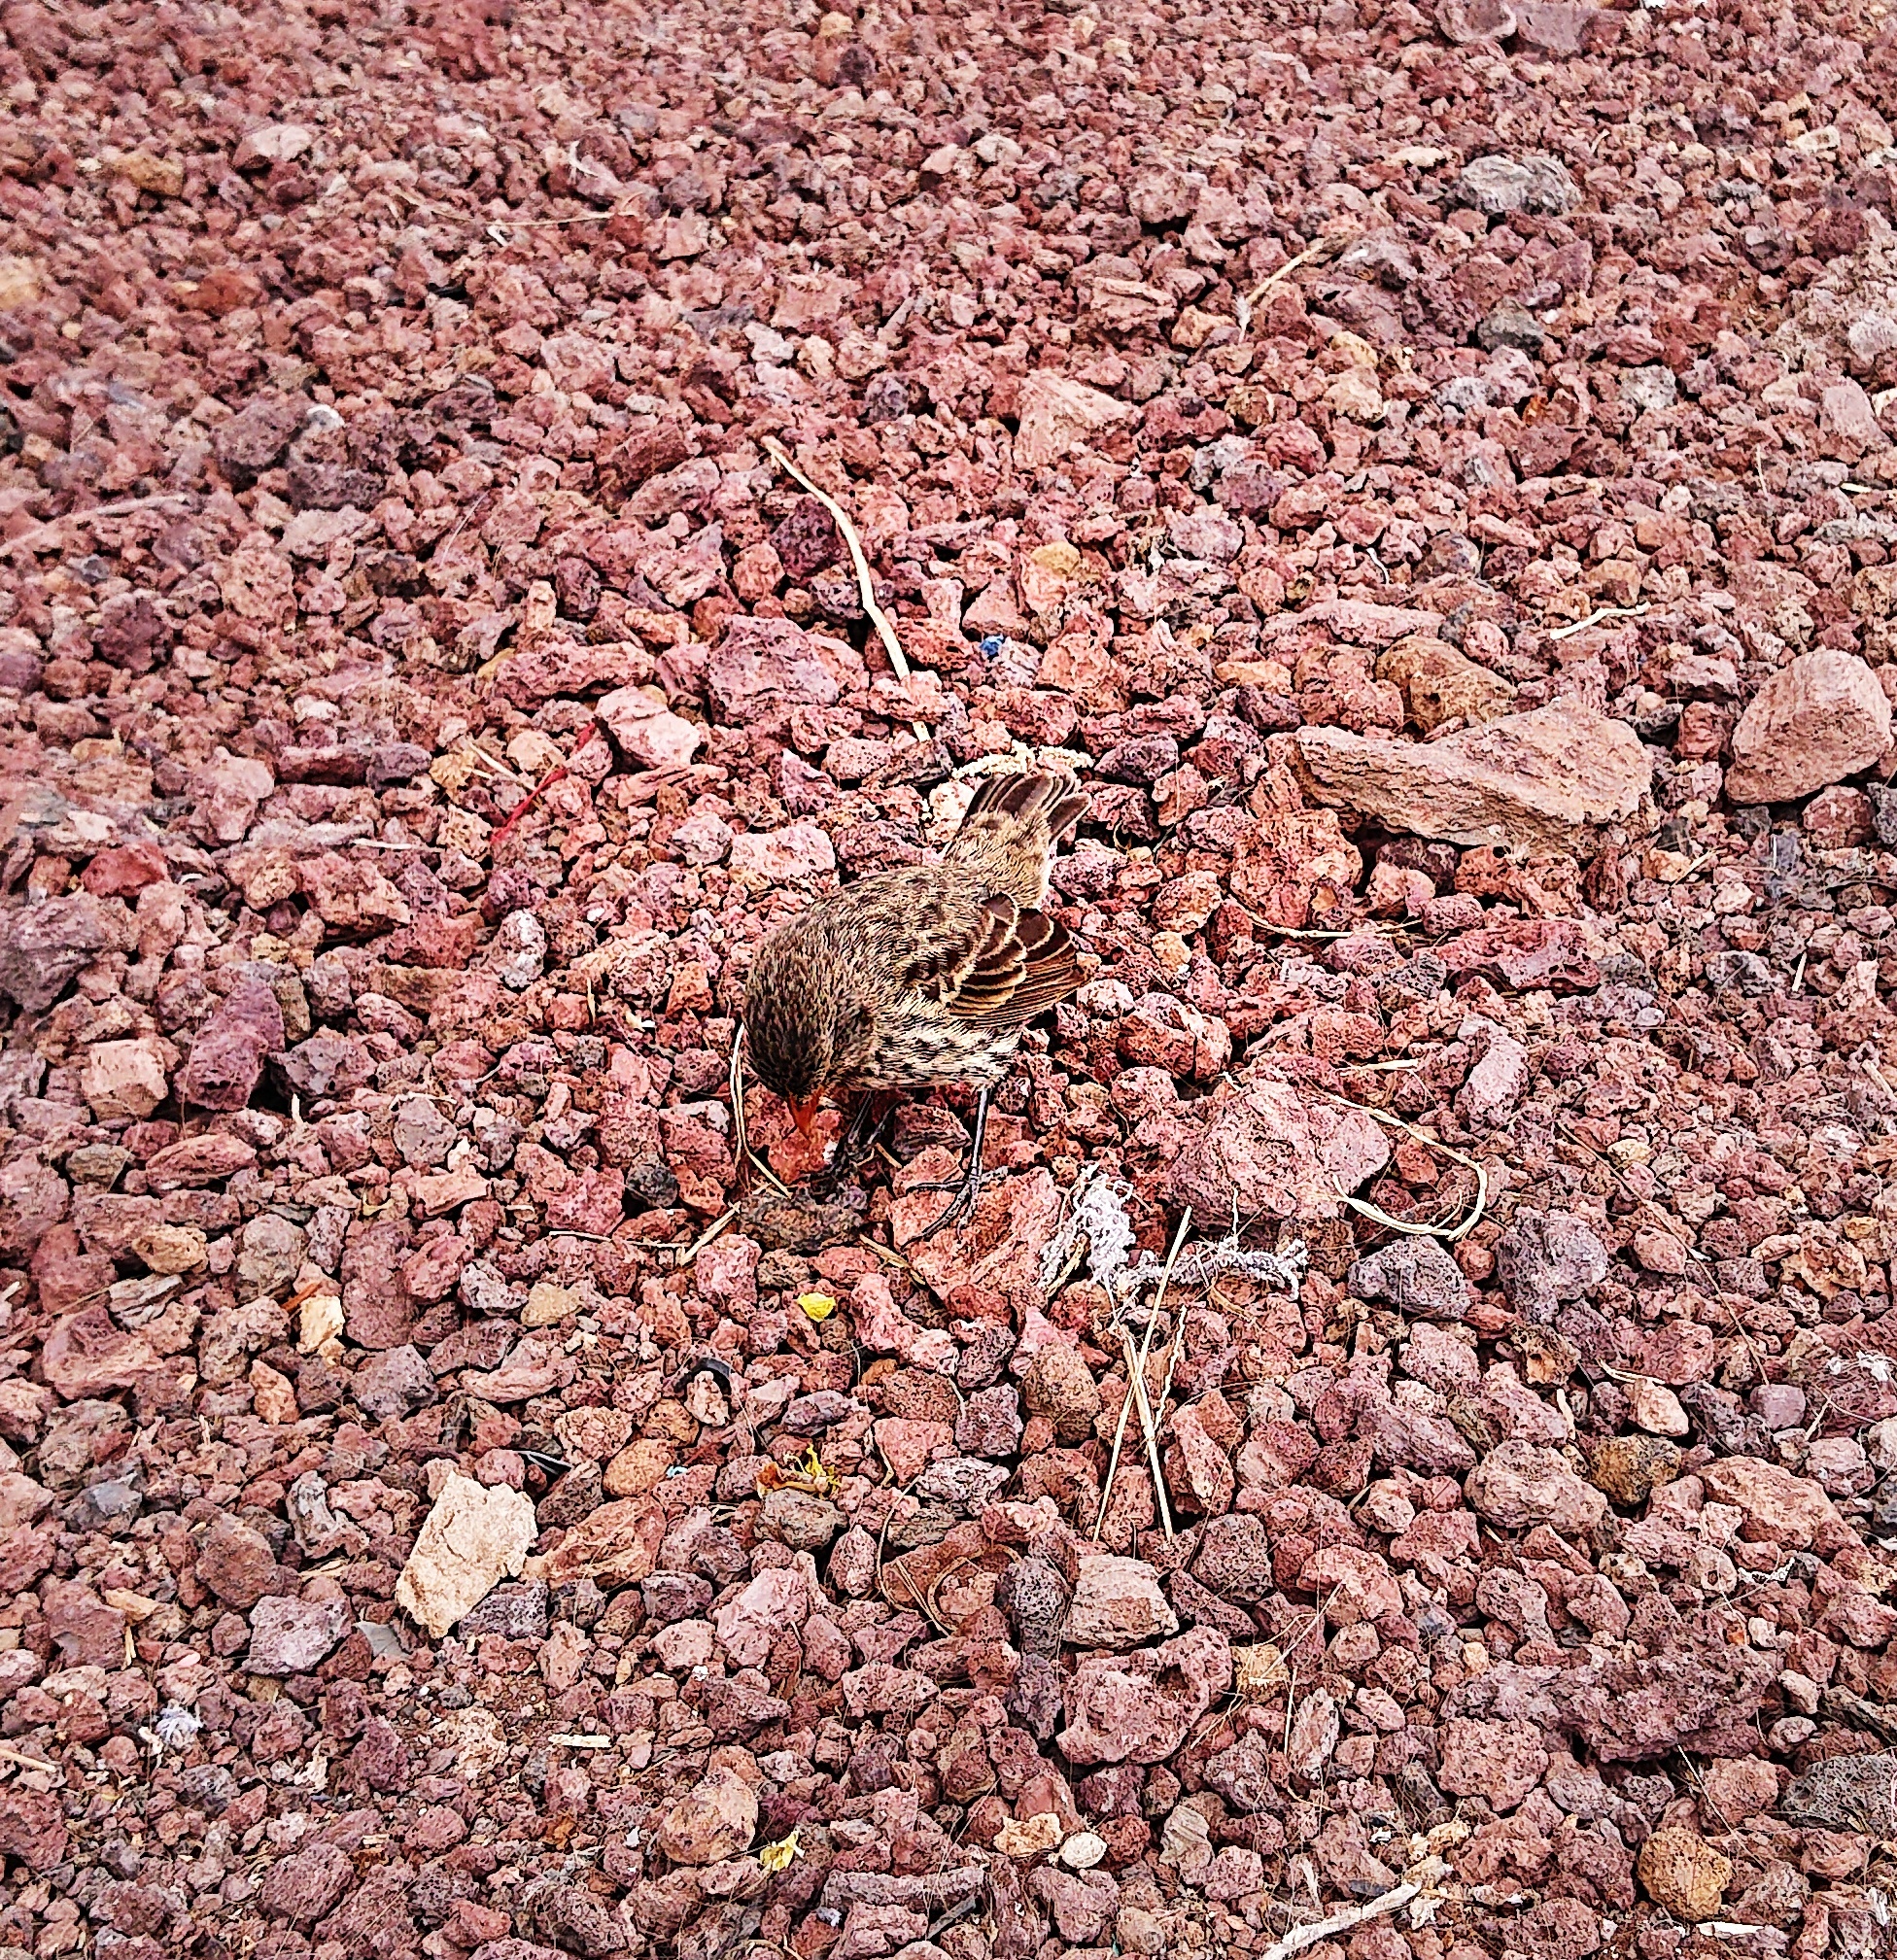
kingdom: Animalia
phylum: Chordata
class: Aves
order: Passeriformes
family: Thraupidae
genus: Geospiza
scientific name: Geospiza fuliginosa
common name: Small ground finch
